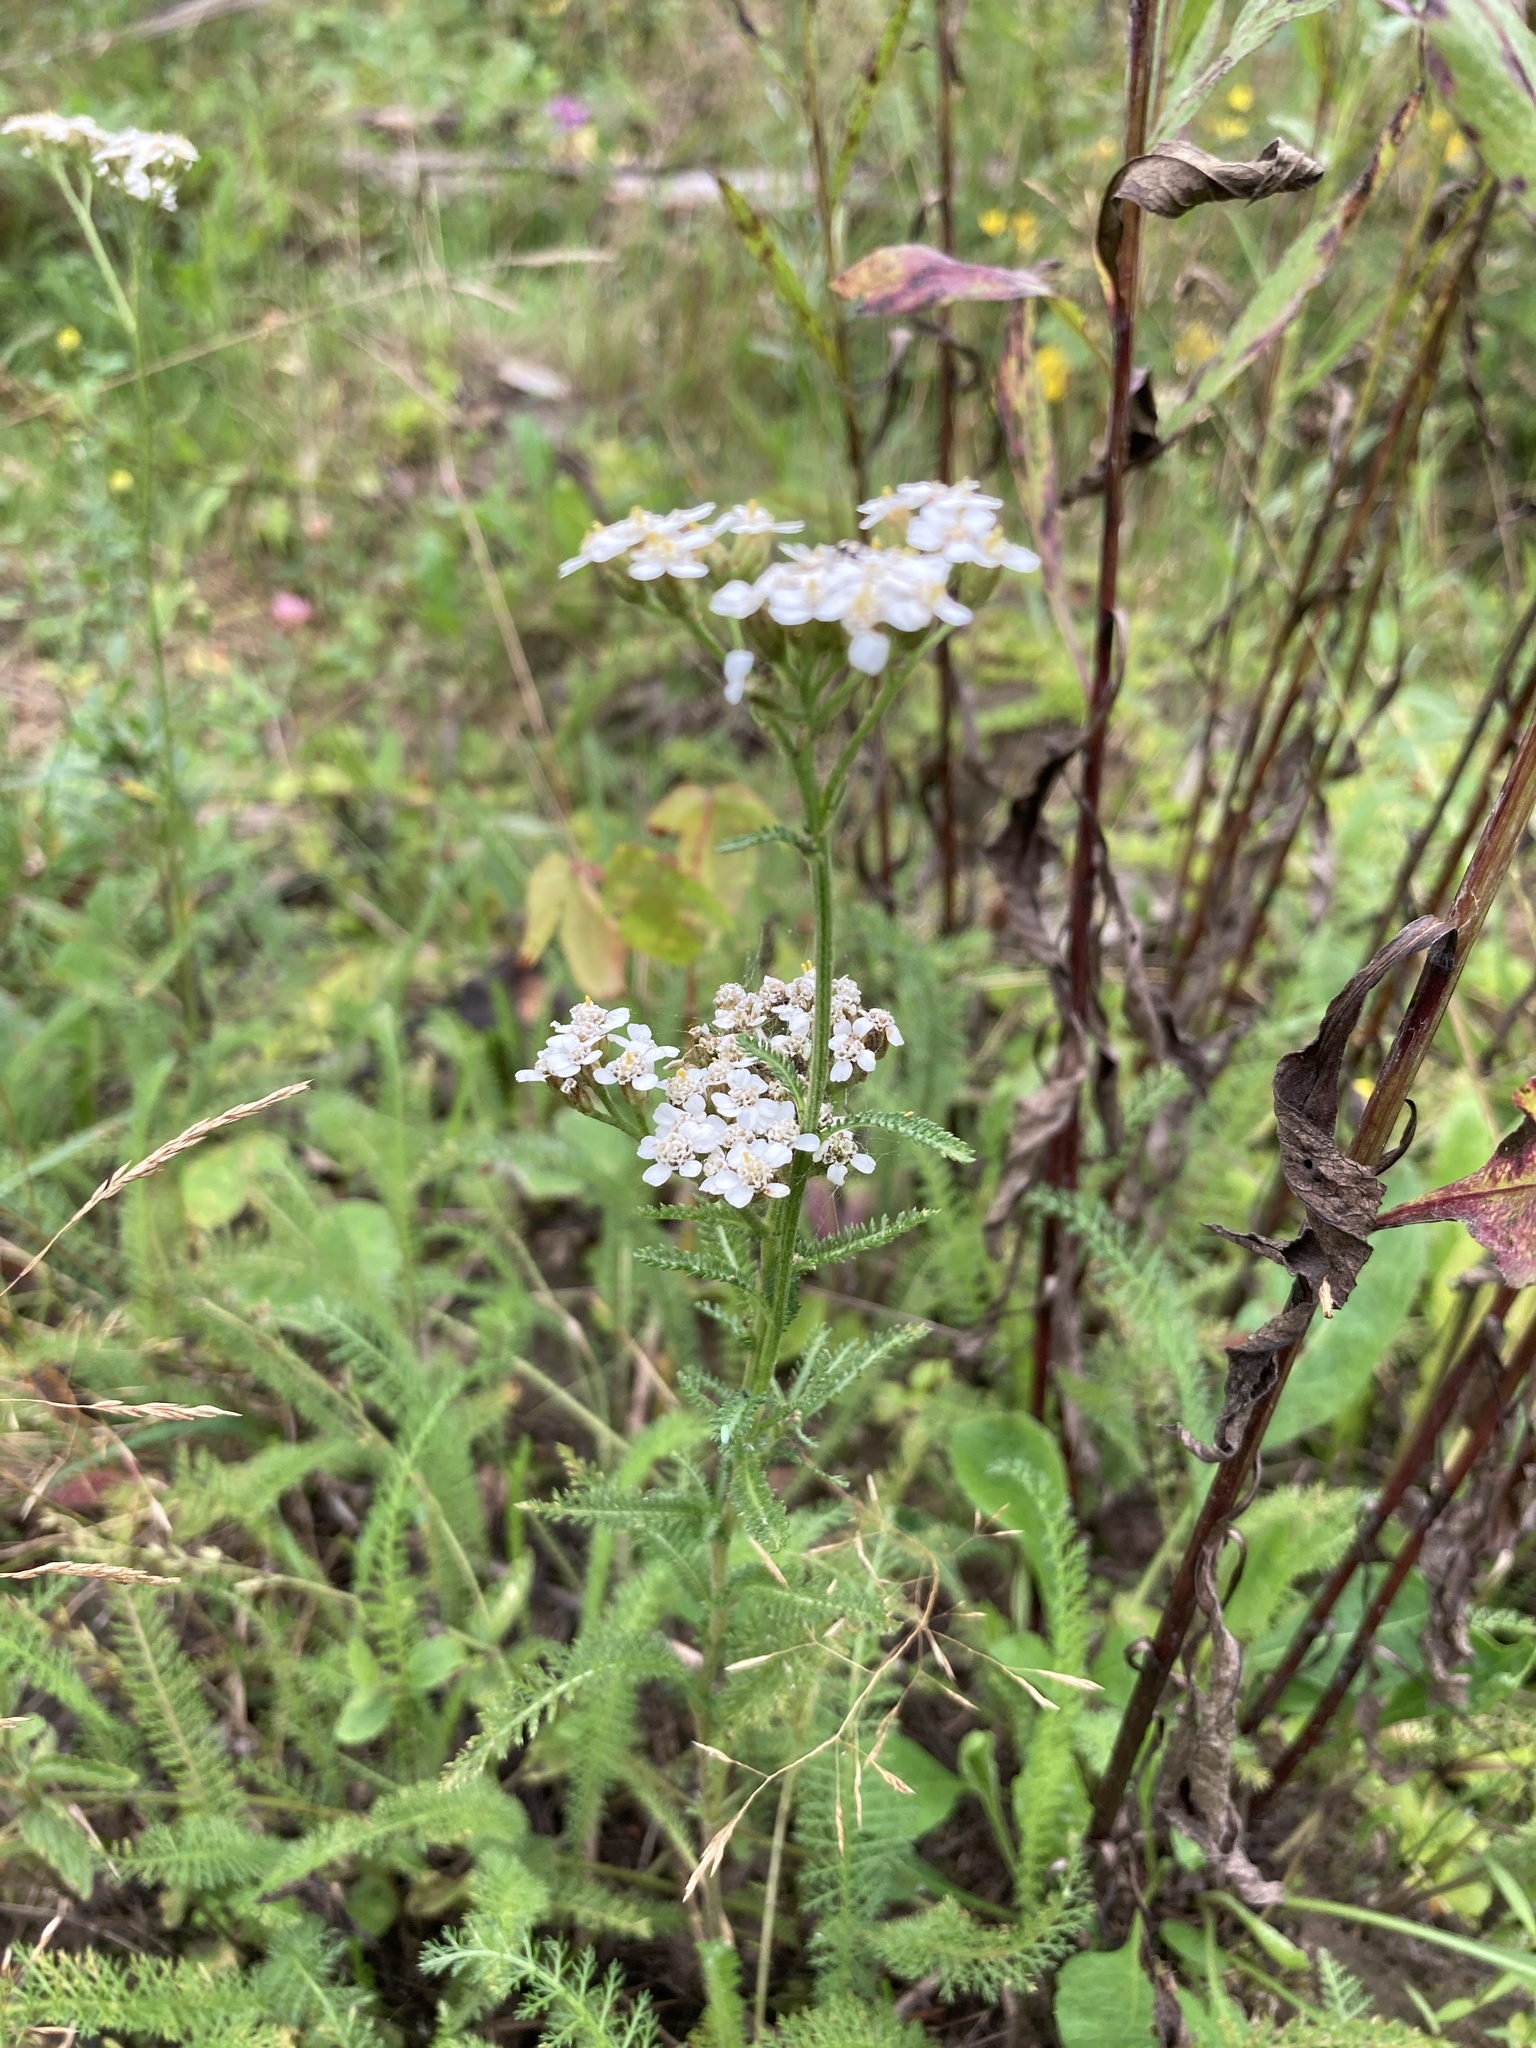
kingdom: Plantae
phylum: Tracheophyta
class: Magnoliopsida
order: Asterales
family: Asteraceae
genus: Achillea
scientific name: Achillea millefolium
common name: Yarrow
